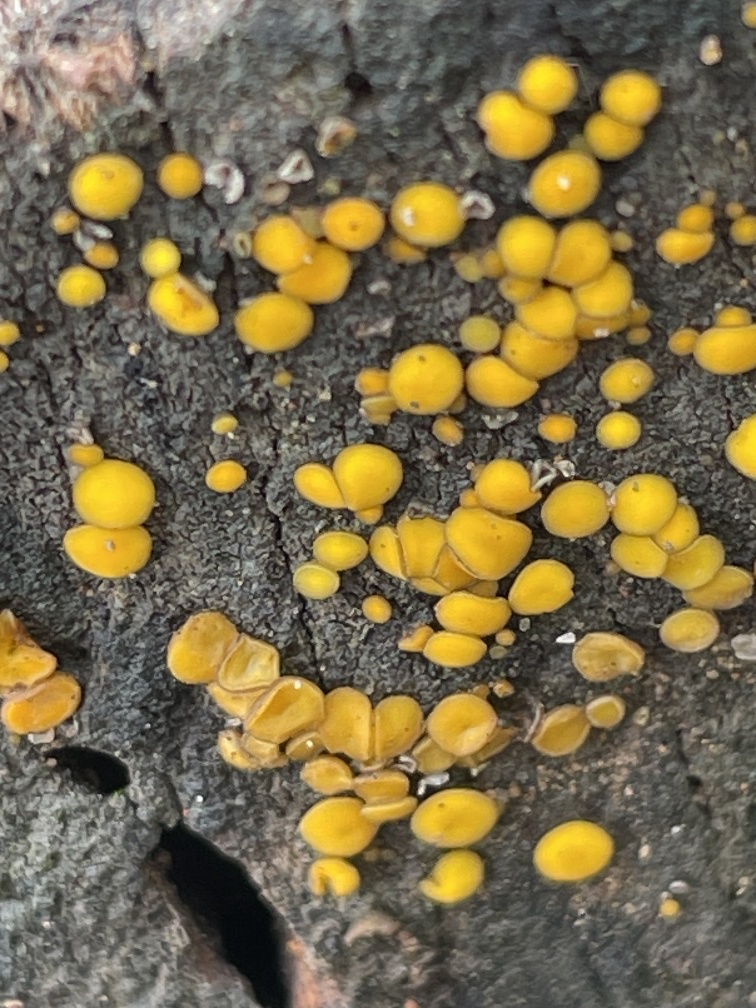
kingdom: Fungi
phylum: Ascomycota
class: Leotiomycetes
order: Helotiales
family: Pezizellaceae
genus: Calycina
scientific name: Calycina claroflava
